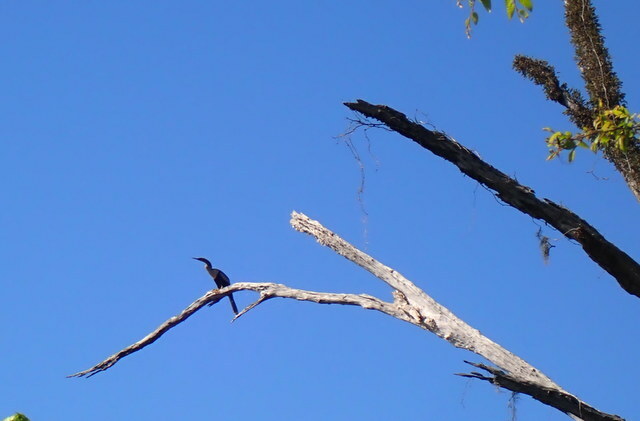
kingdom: Animalia
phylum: Chordata
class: Aves
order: Suliformes
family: Anhingidae
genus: Anhinga
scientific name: Anhinga anhinga
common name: Anhinga
